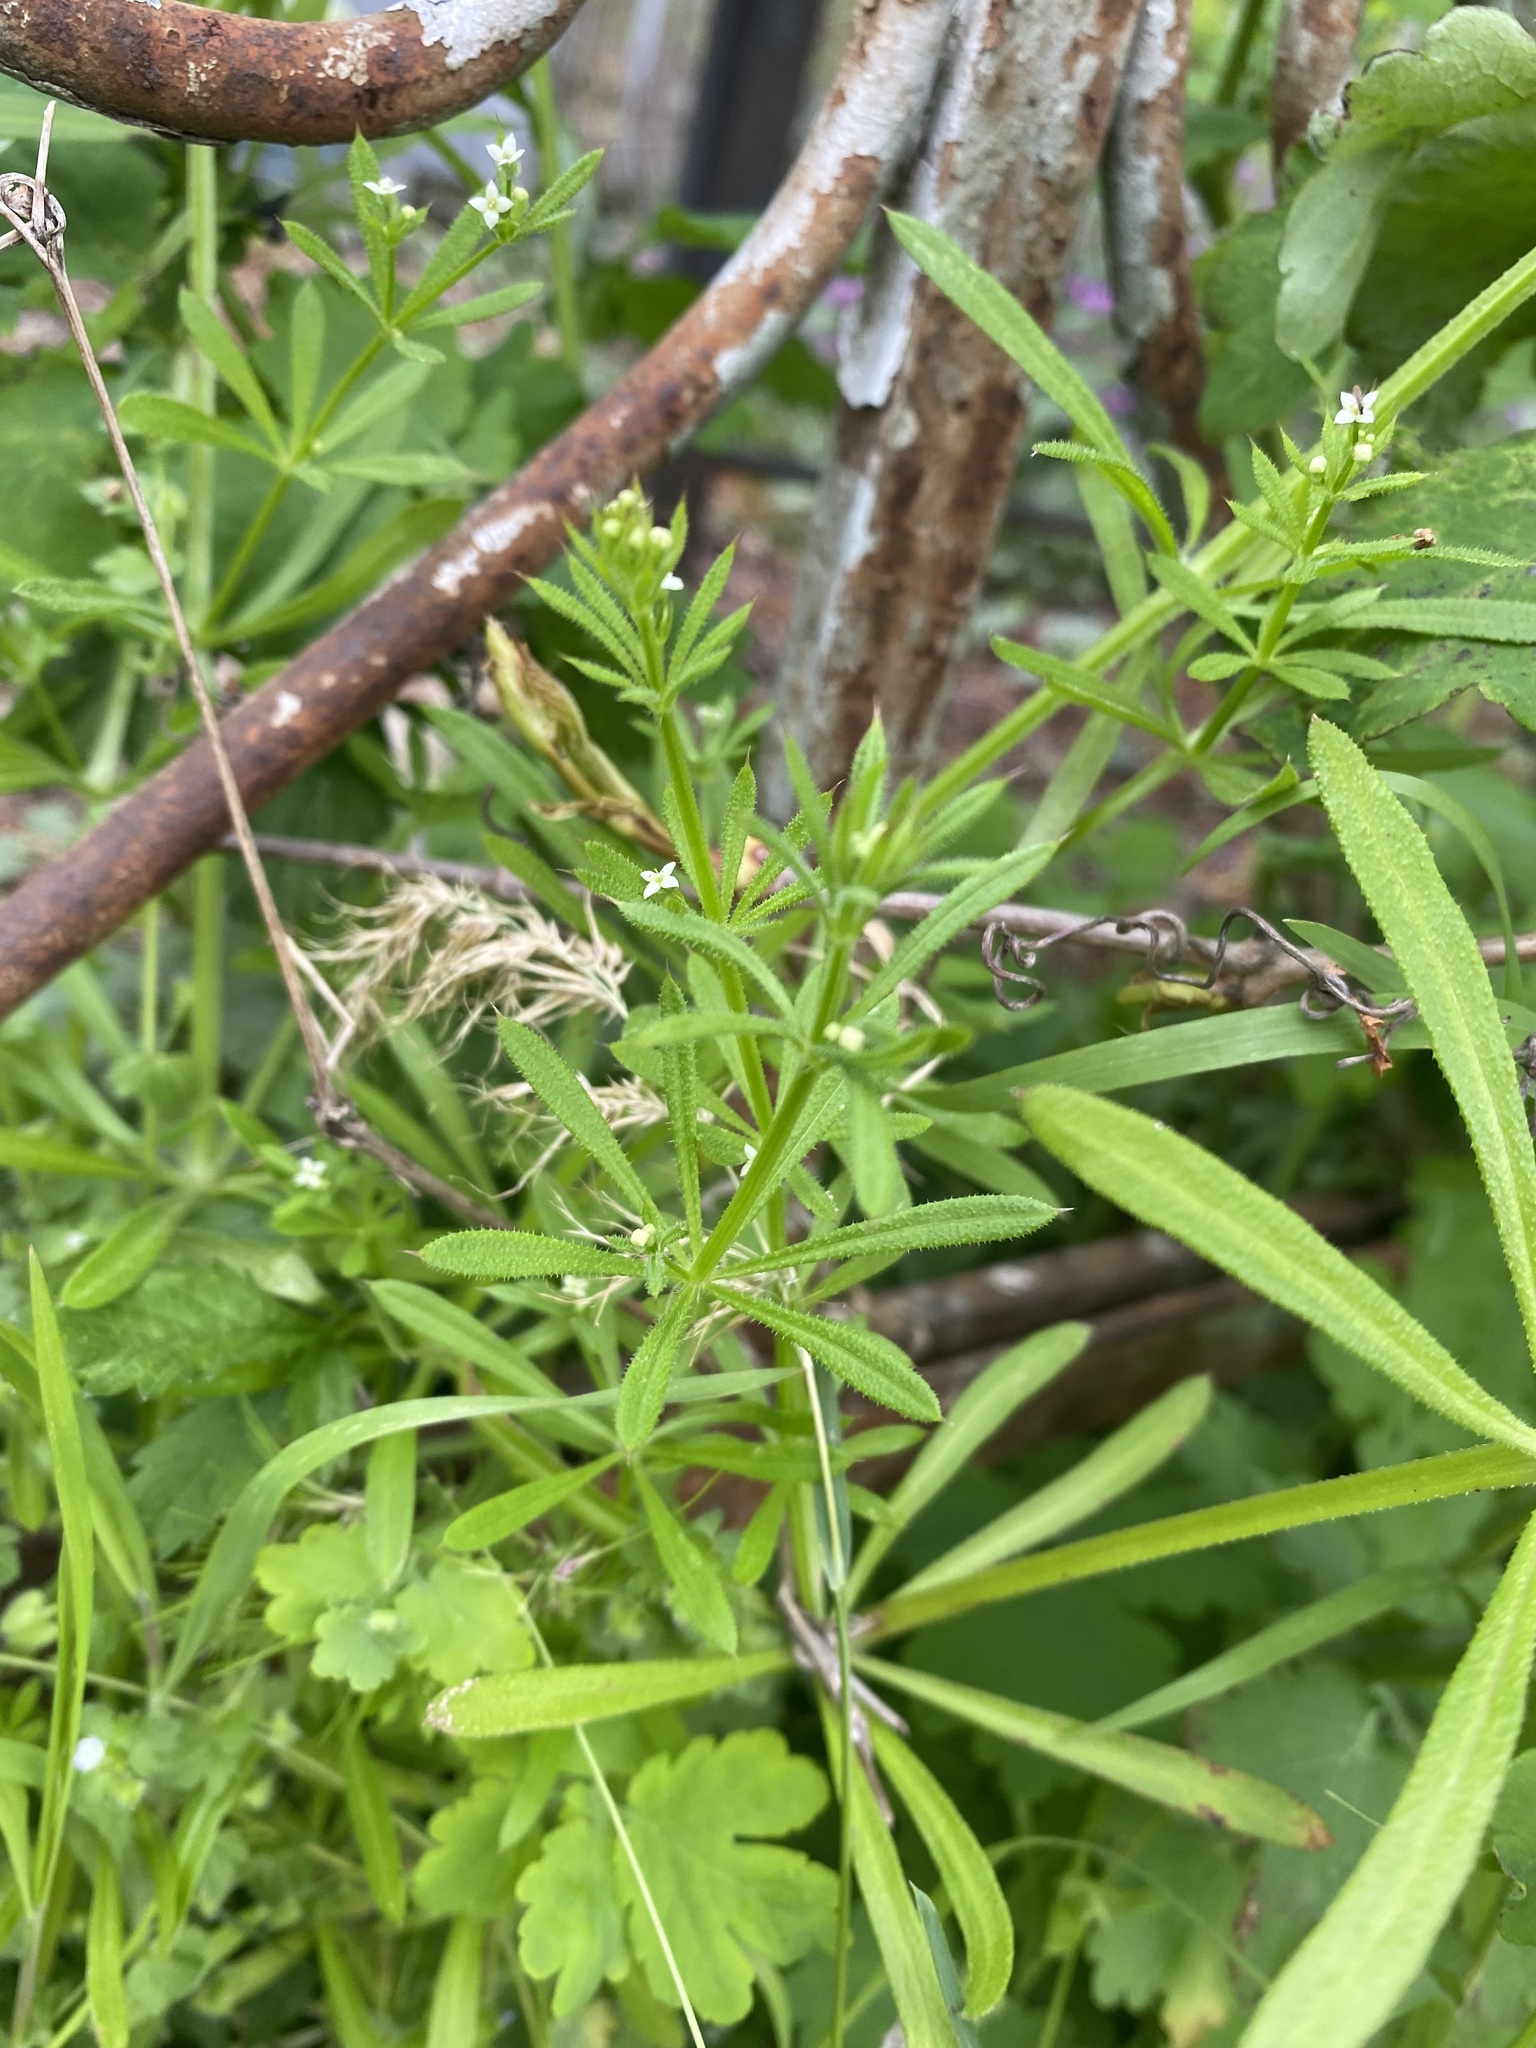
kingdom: Plantae
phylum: Tracheophyta
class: Magnoliopsida
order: Gentianales
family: Rubiaceae
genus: Galium
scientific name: Galium aparine
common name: Cleavers
